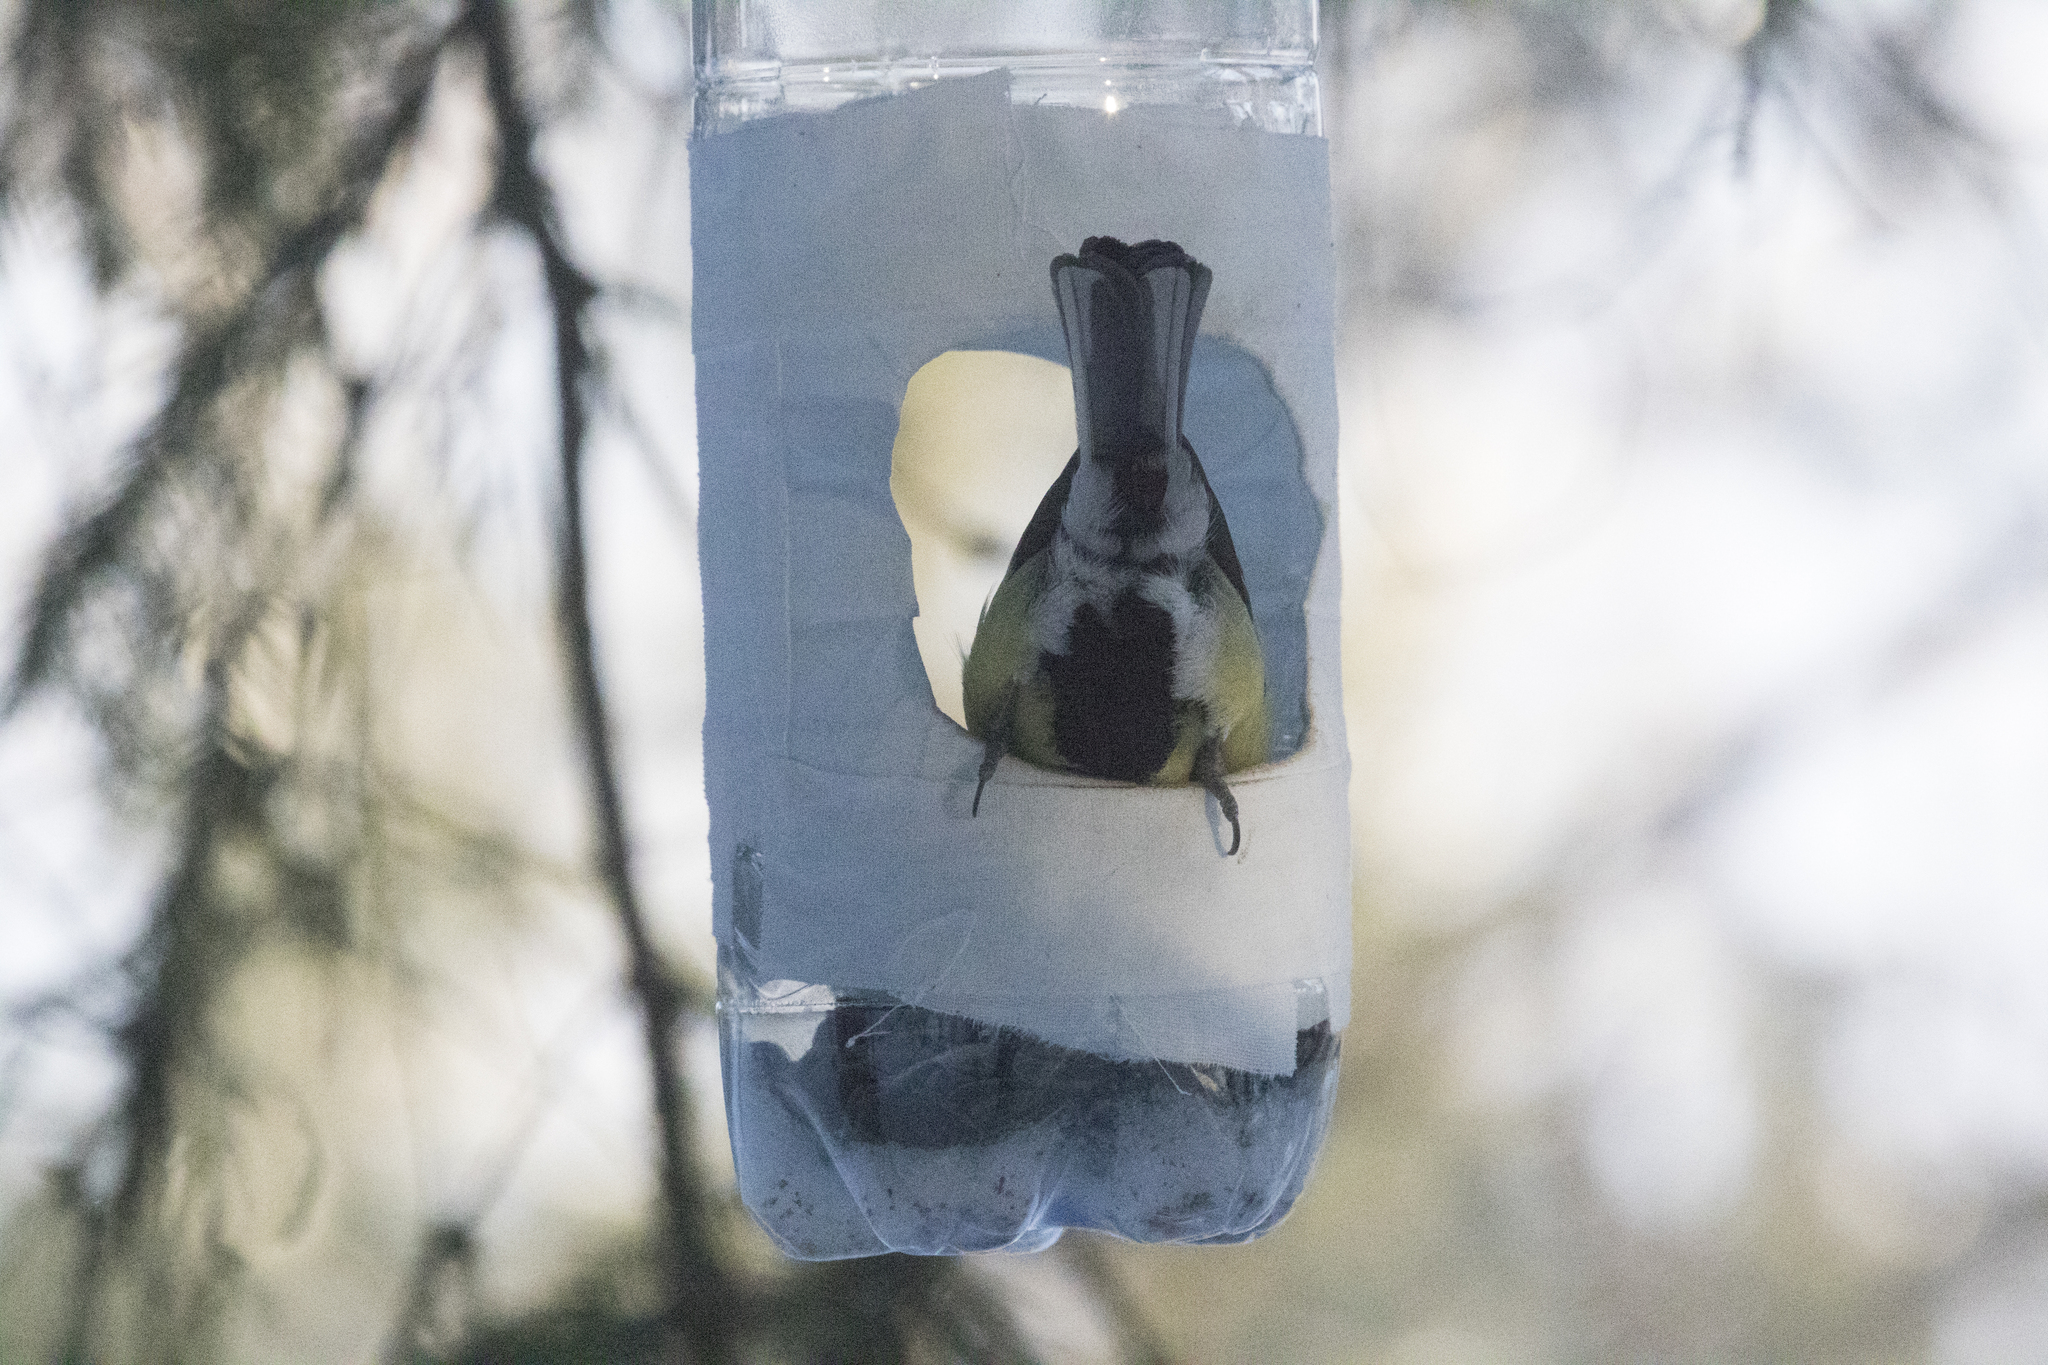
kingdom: Animalia
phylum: Chordata
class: Aves
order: Passeriformes
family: Paridae
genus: Parus
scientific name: Parus major
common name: Great tit
